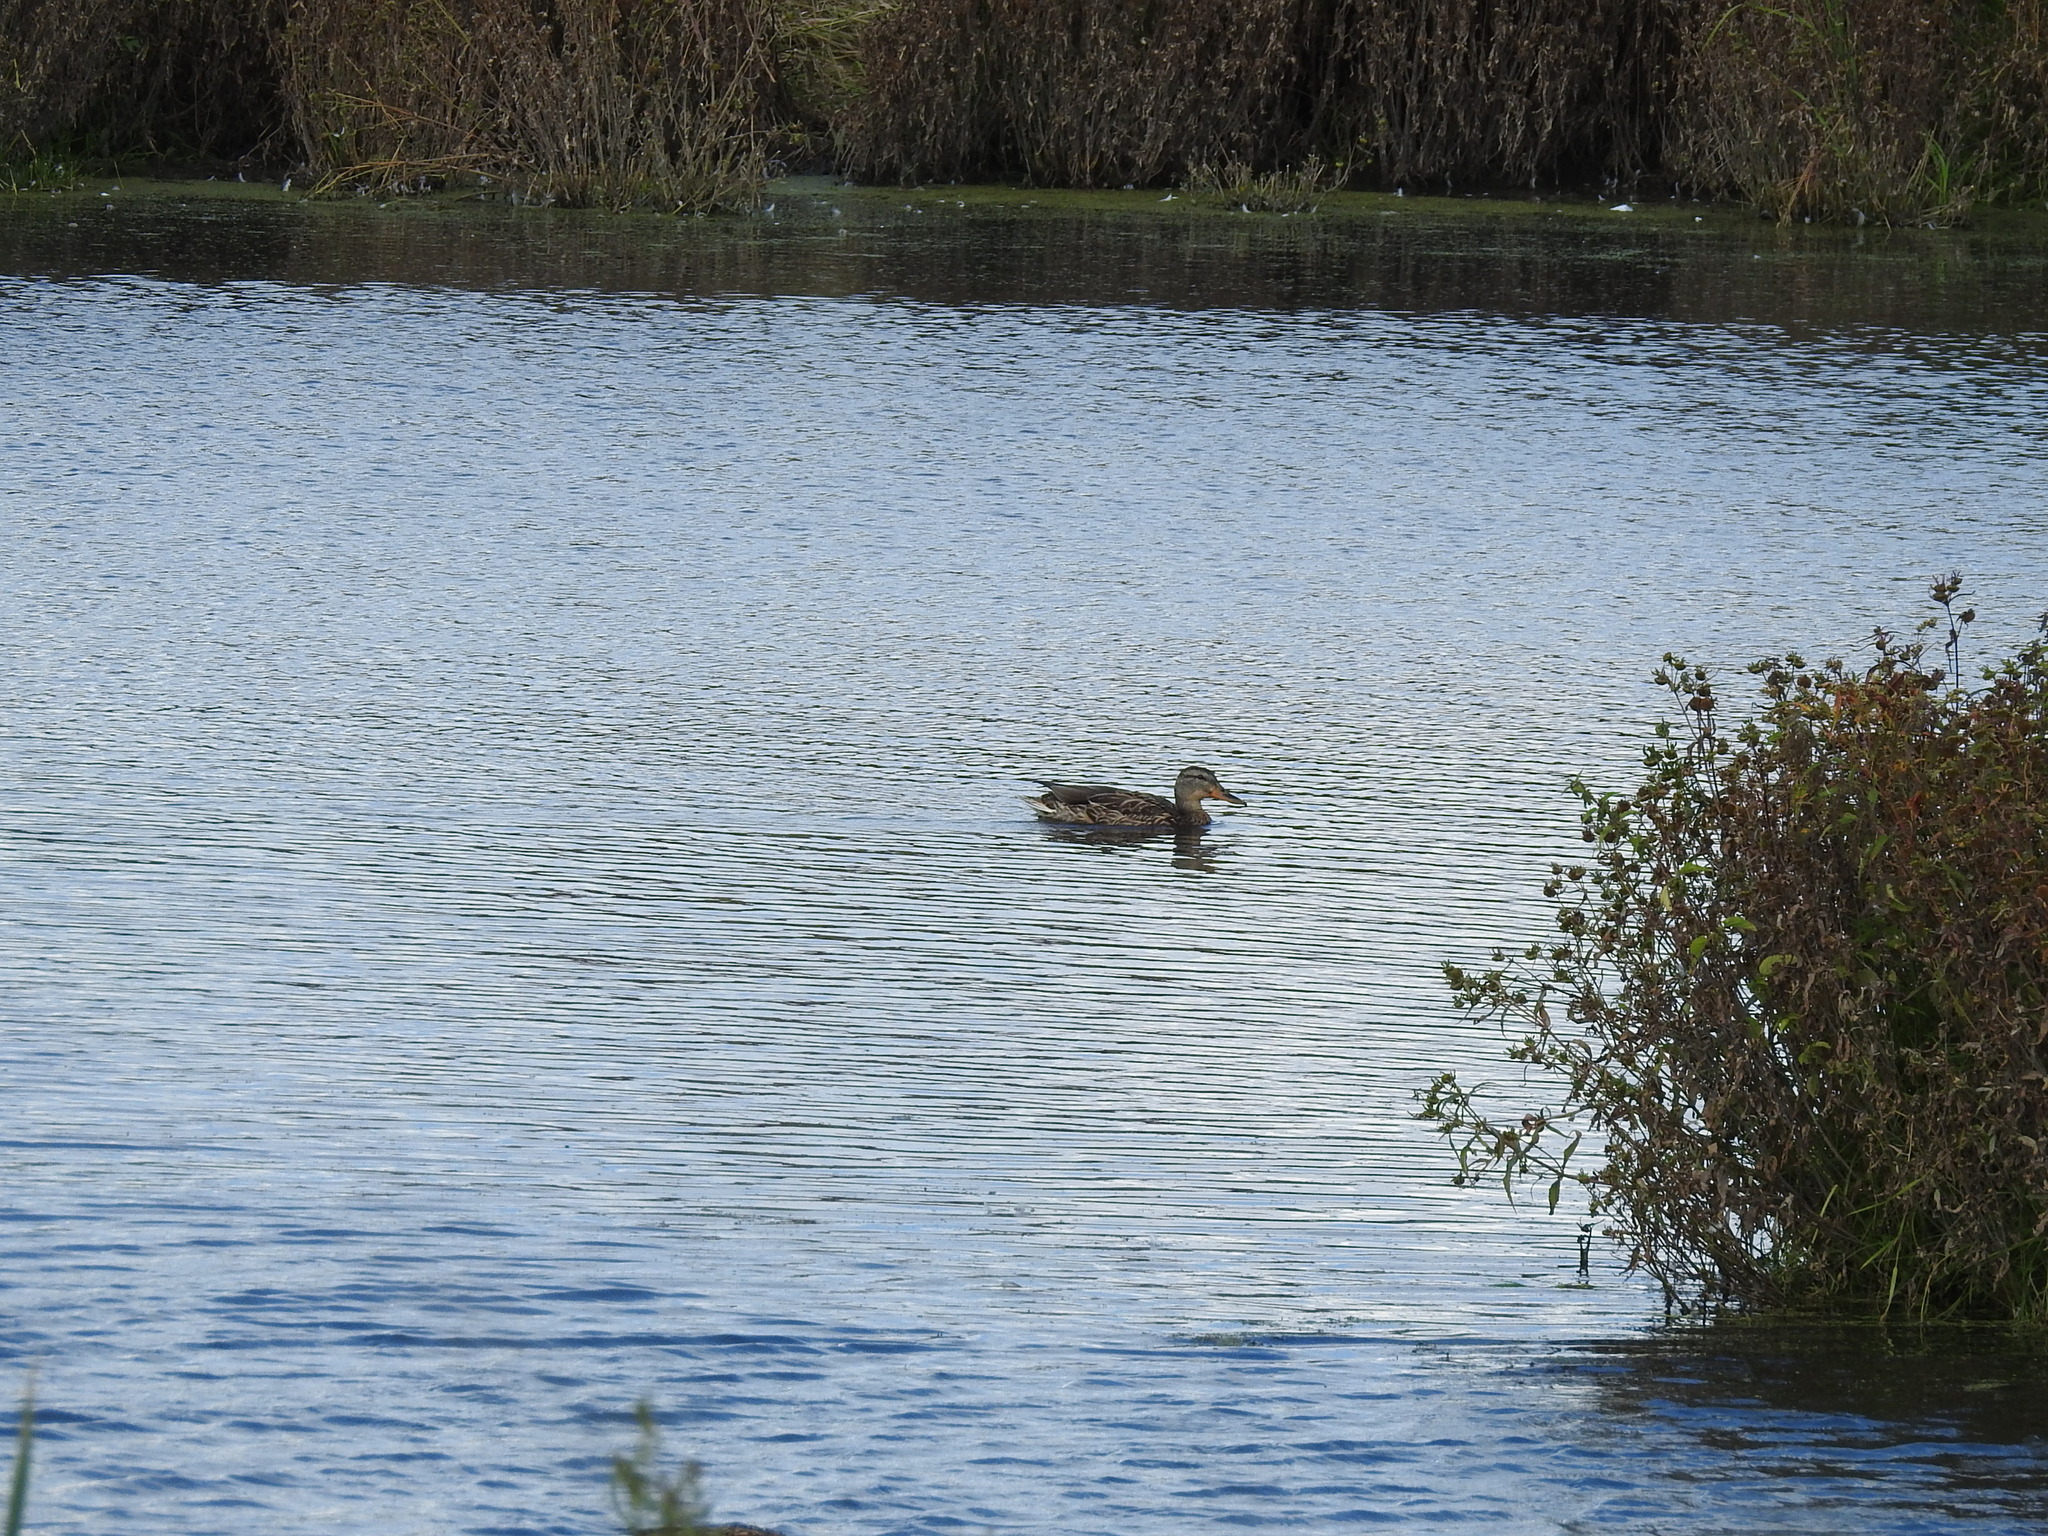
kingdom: Animalia
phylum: Chordata
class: Aves
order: Anseriformes
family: Anatidae
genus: Anas
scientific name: Anas platyrhynchos
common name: Mallard
